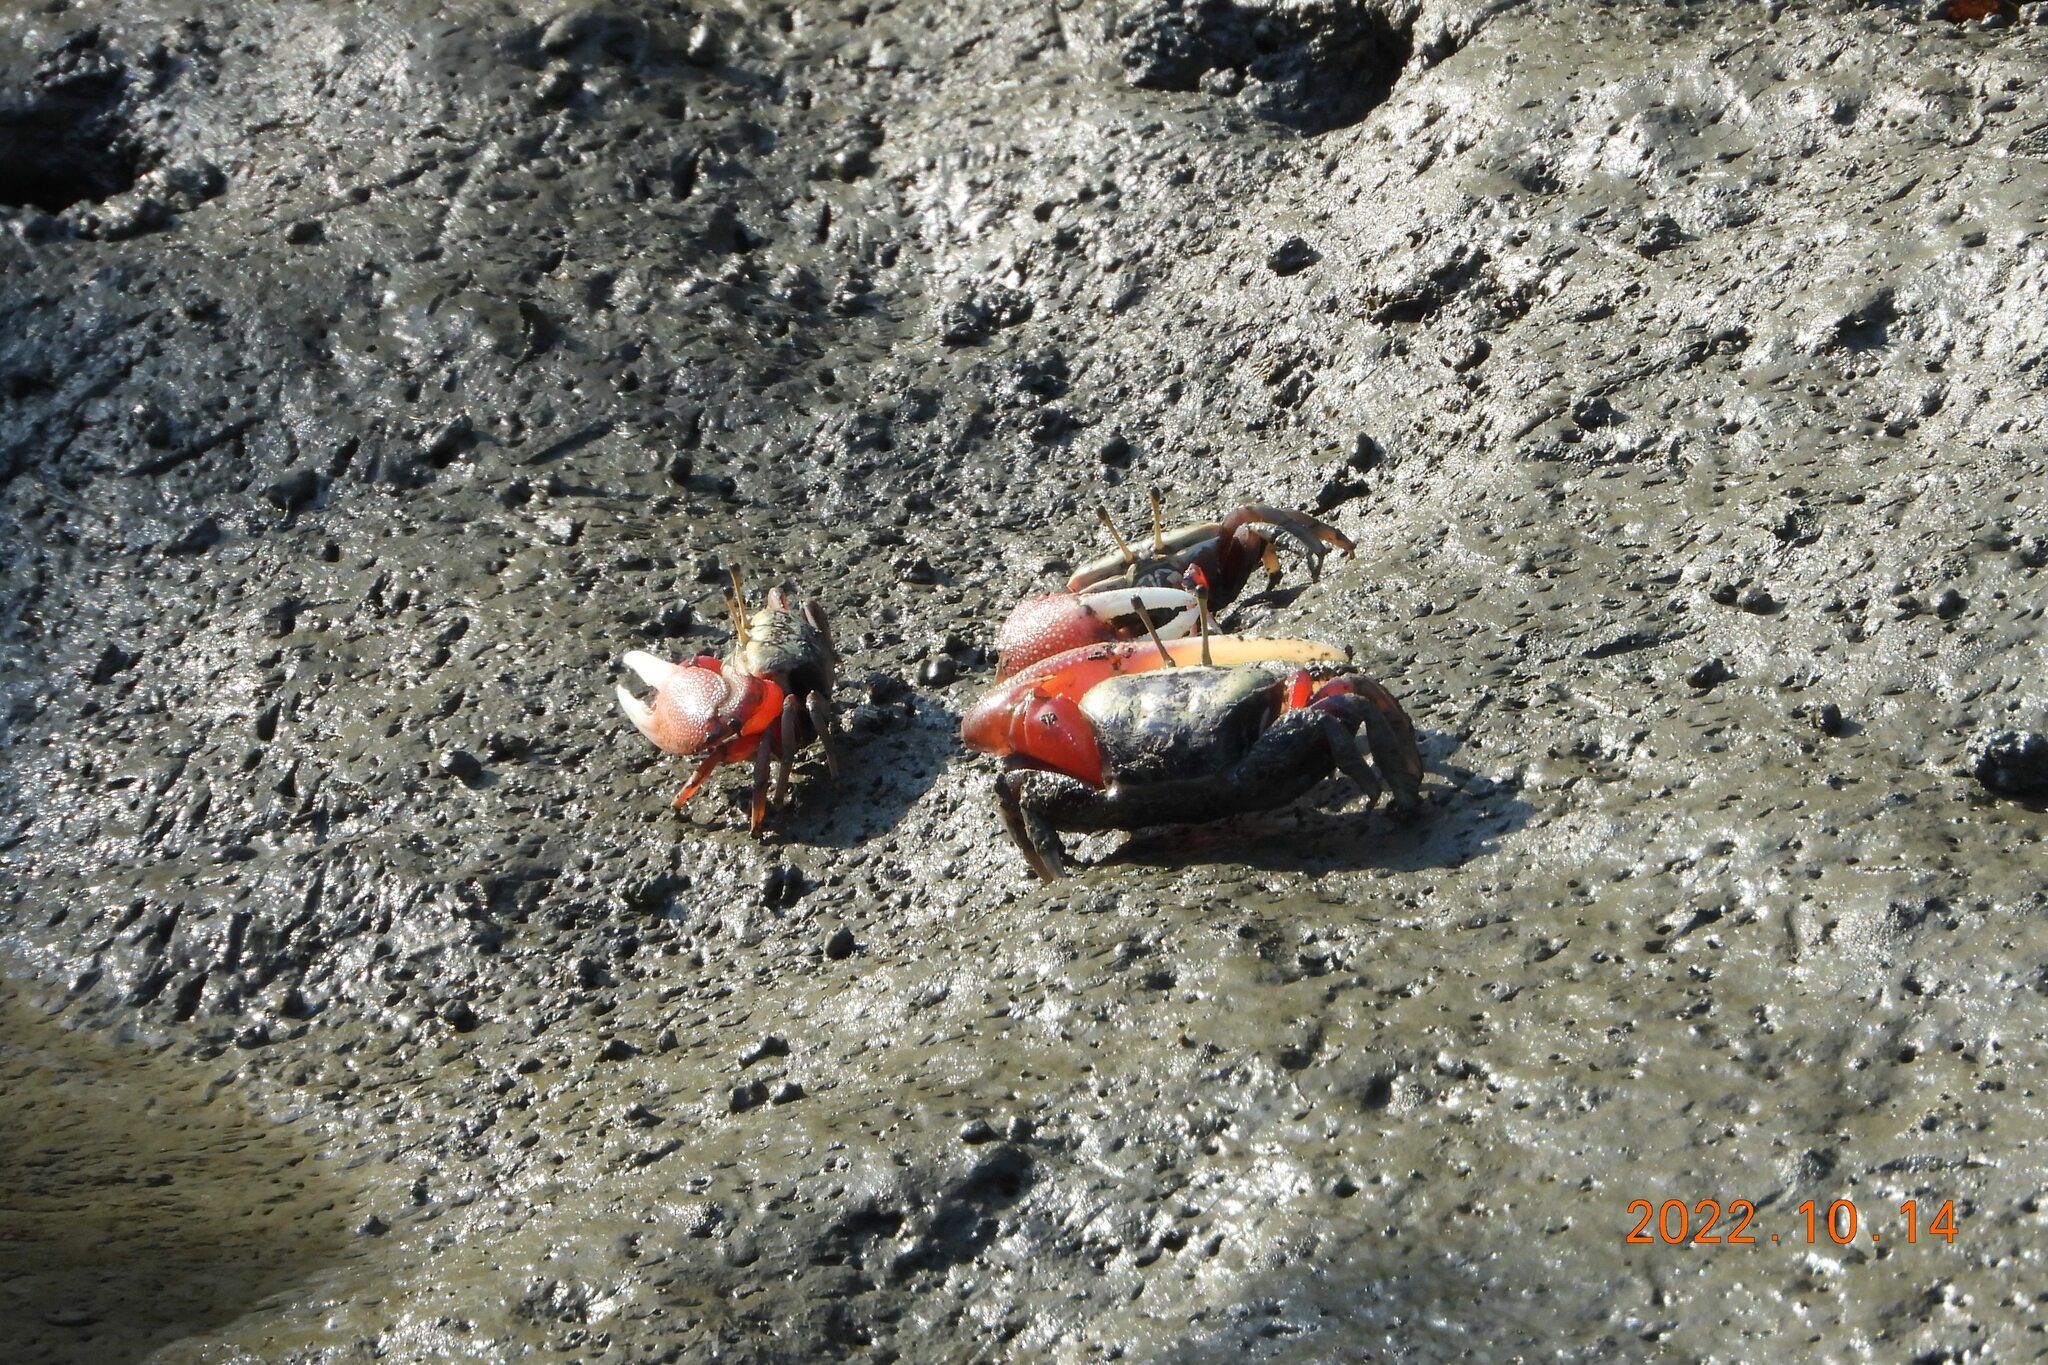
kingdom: Animalia
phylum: Arthropoda
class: Malacostraca
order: Decapoda
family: Ocypodidae
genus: Tubuca
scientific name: Tubuca arcuata
